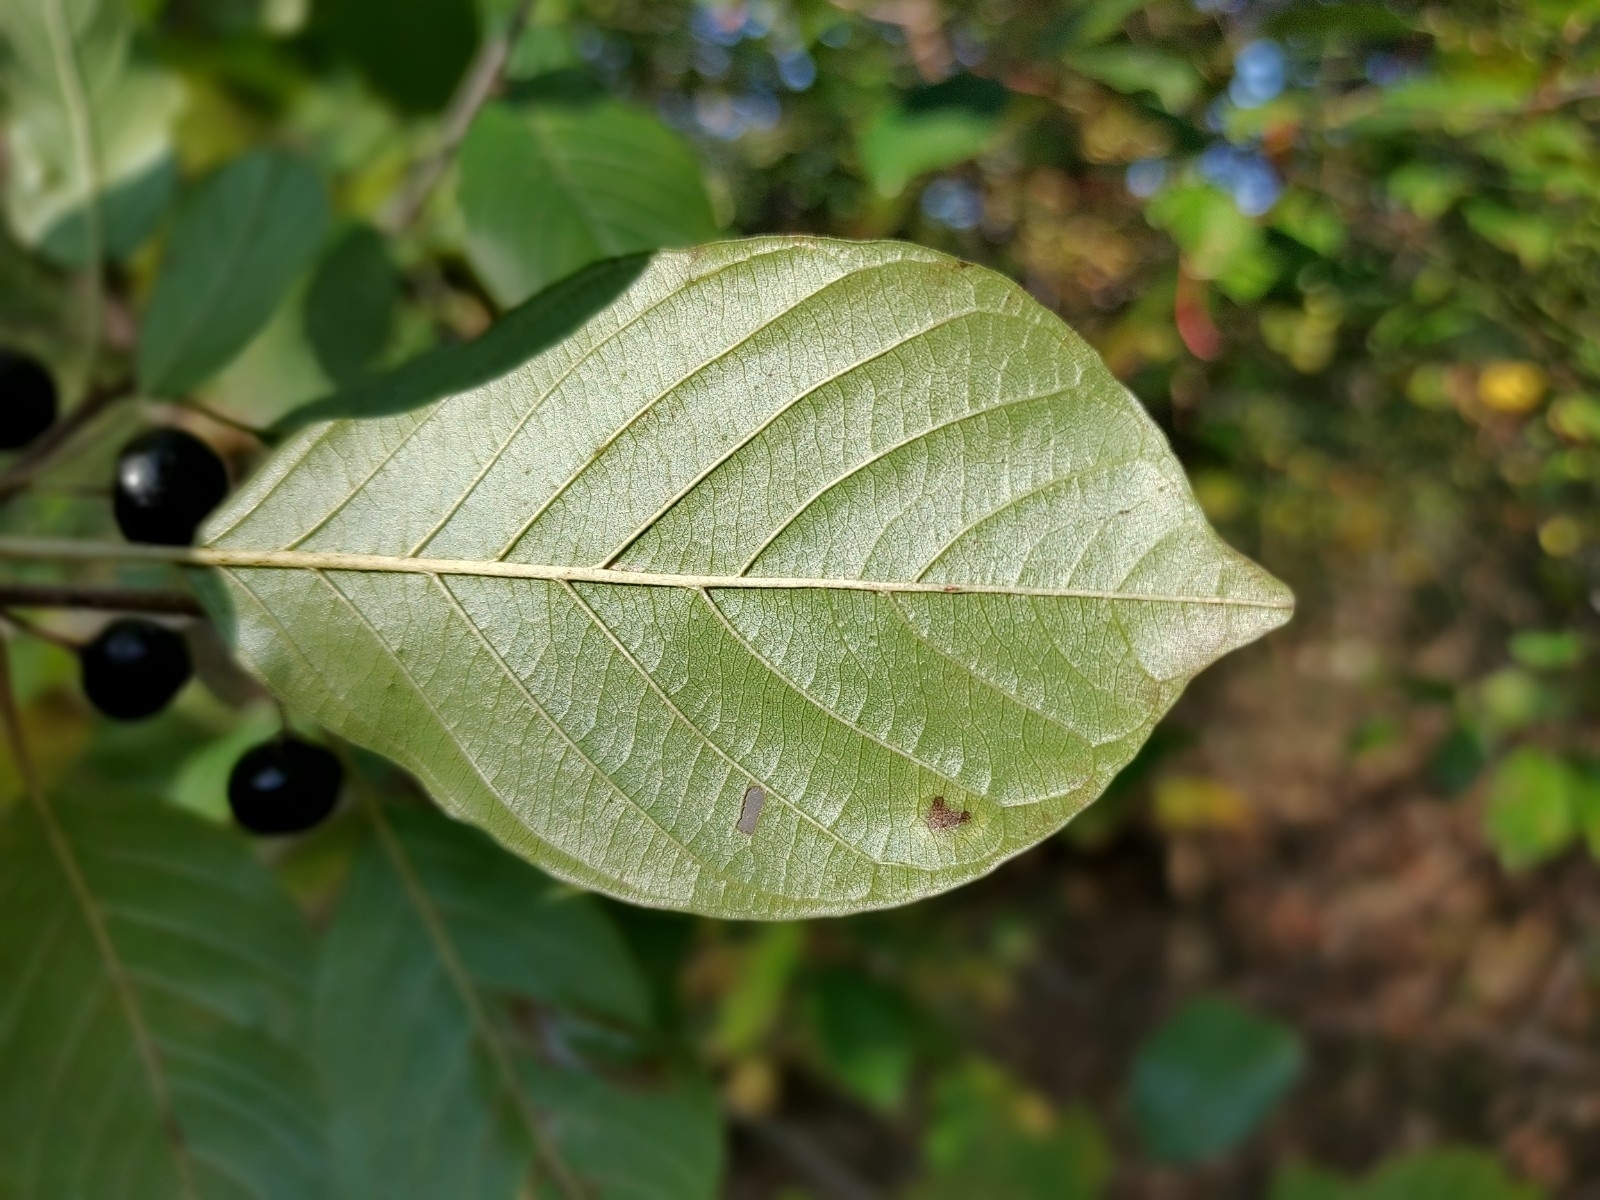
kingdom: Plantae
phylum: Tracheophyta
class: Magnoliopsida
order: Rosales
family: Rhamnaceae
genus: Frangula
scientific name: Frangula alnus
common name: Alder buckthorn
